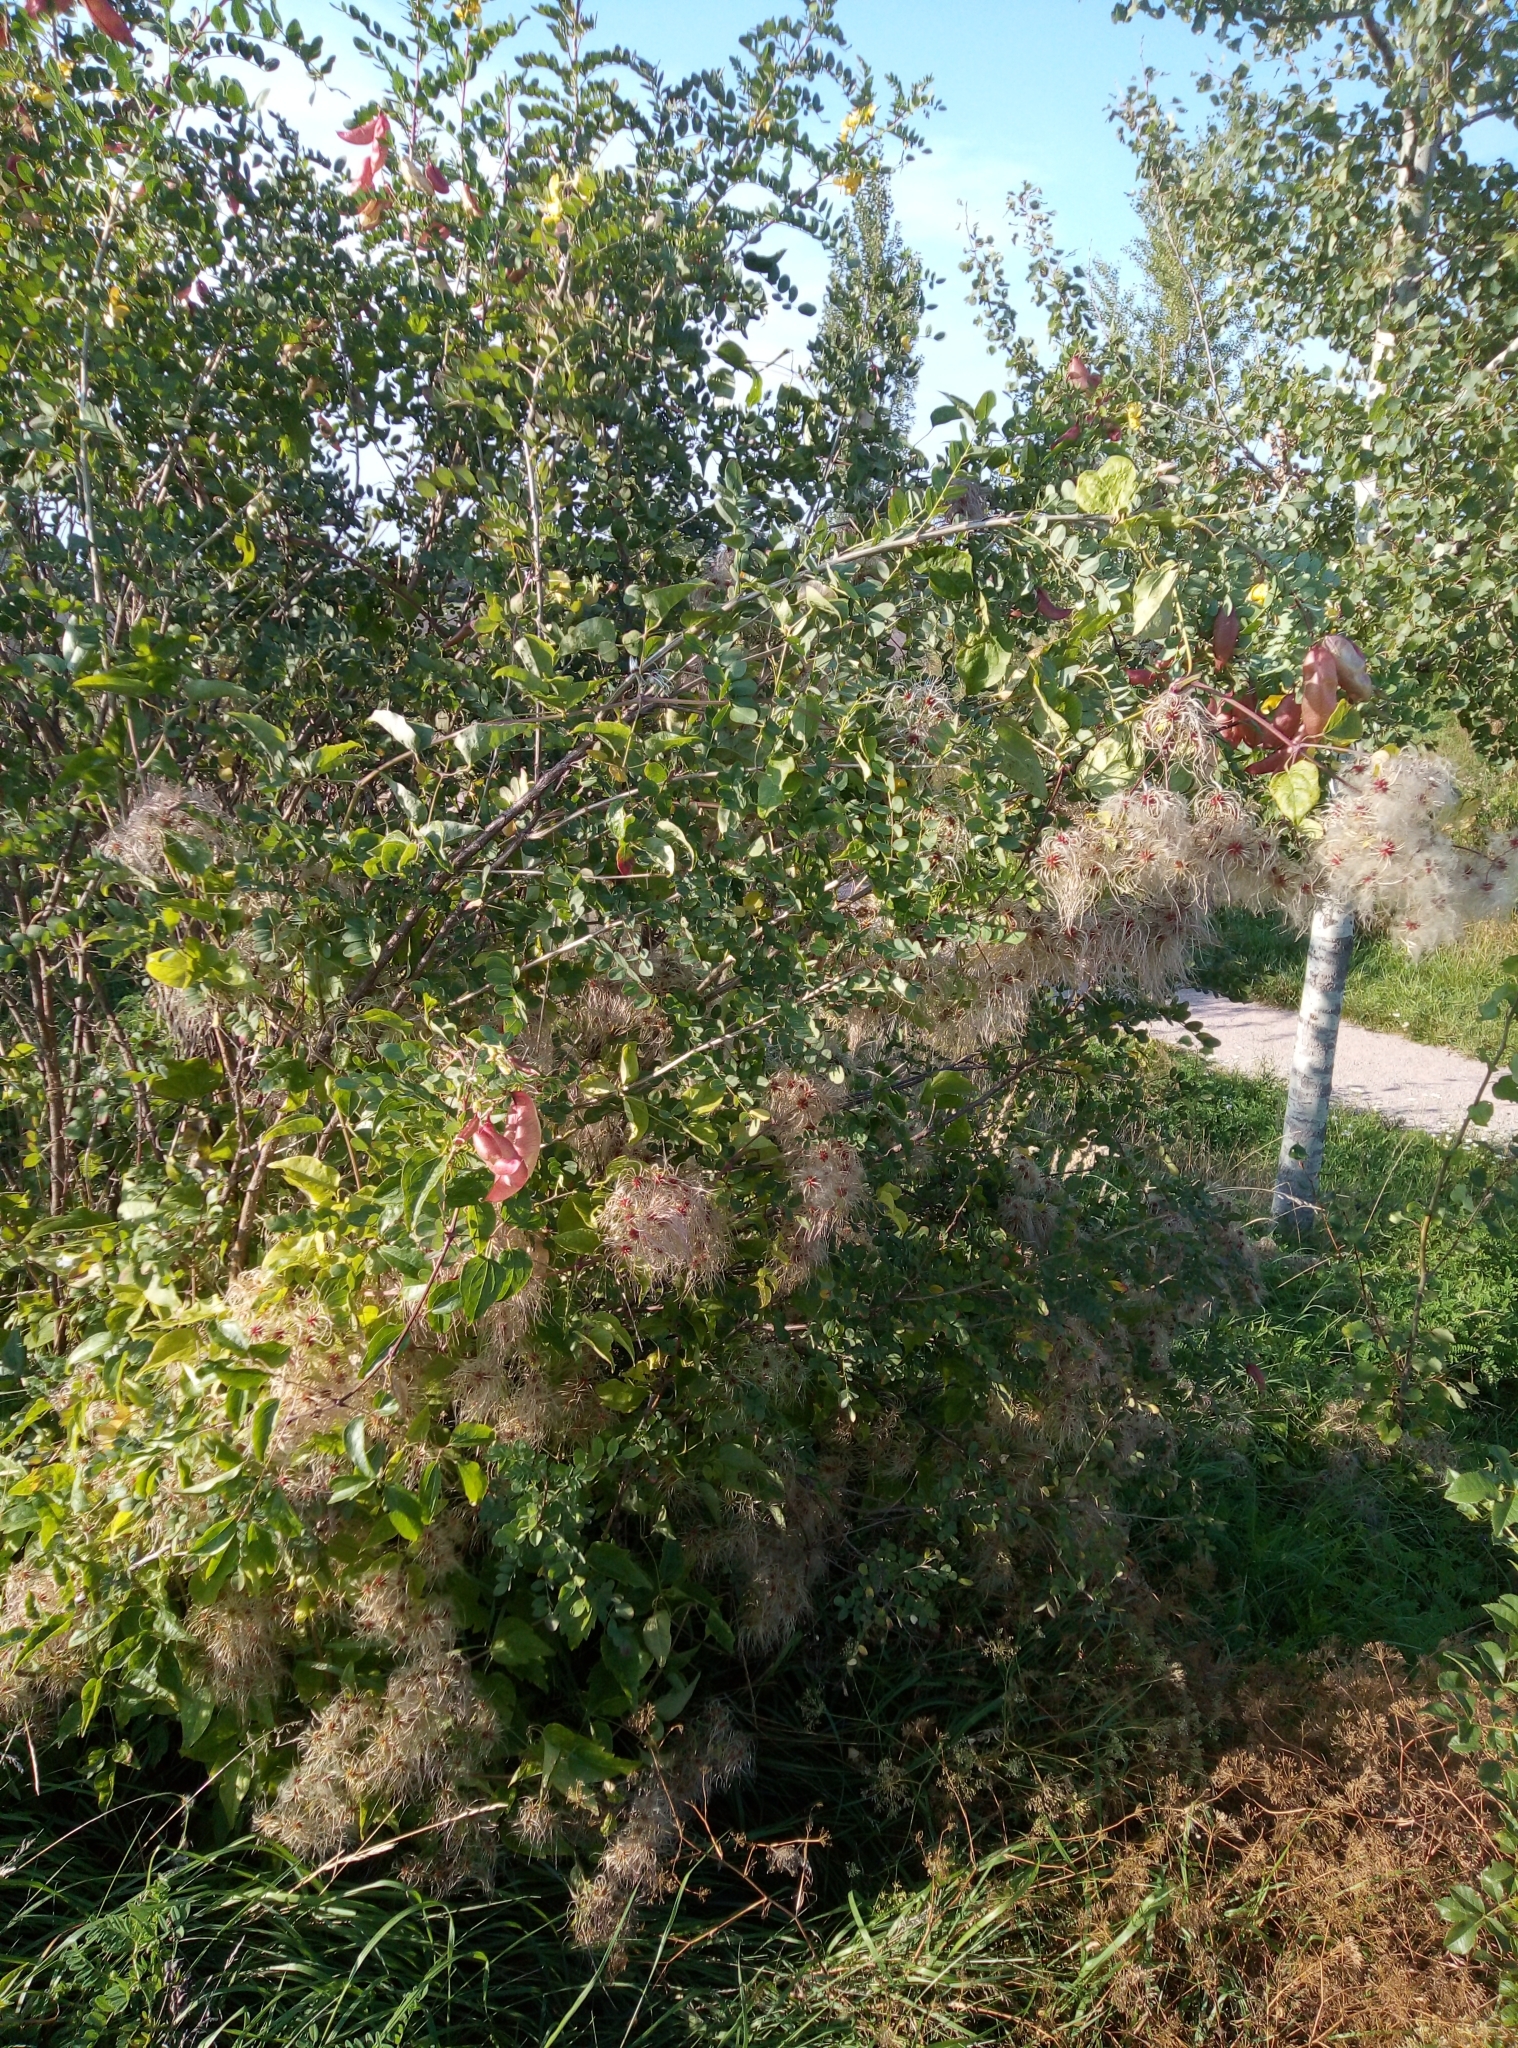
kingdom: Plantae
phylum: Tracheophyta
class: Magnoliopsida
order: Fabales
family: Fabaceae
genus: Colutea
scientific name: Colutea arborescens
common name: Bladder-senna
